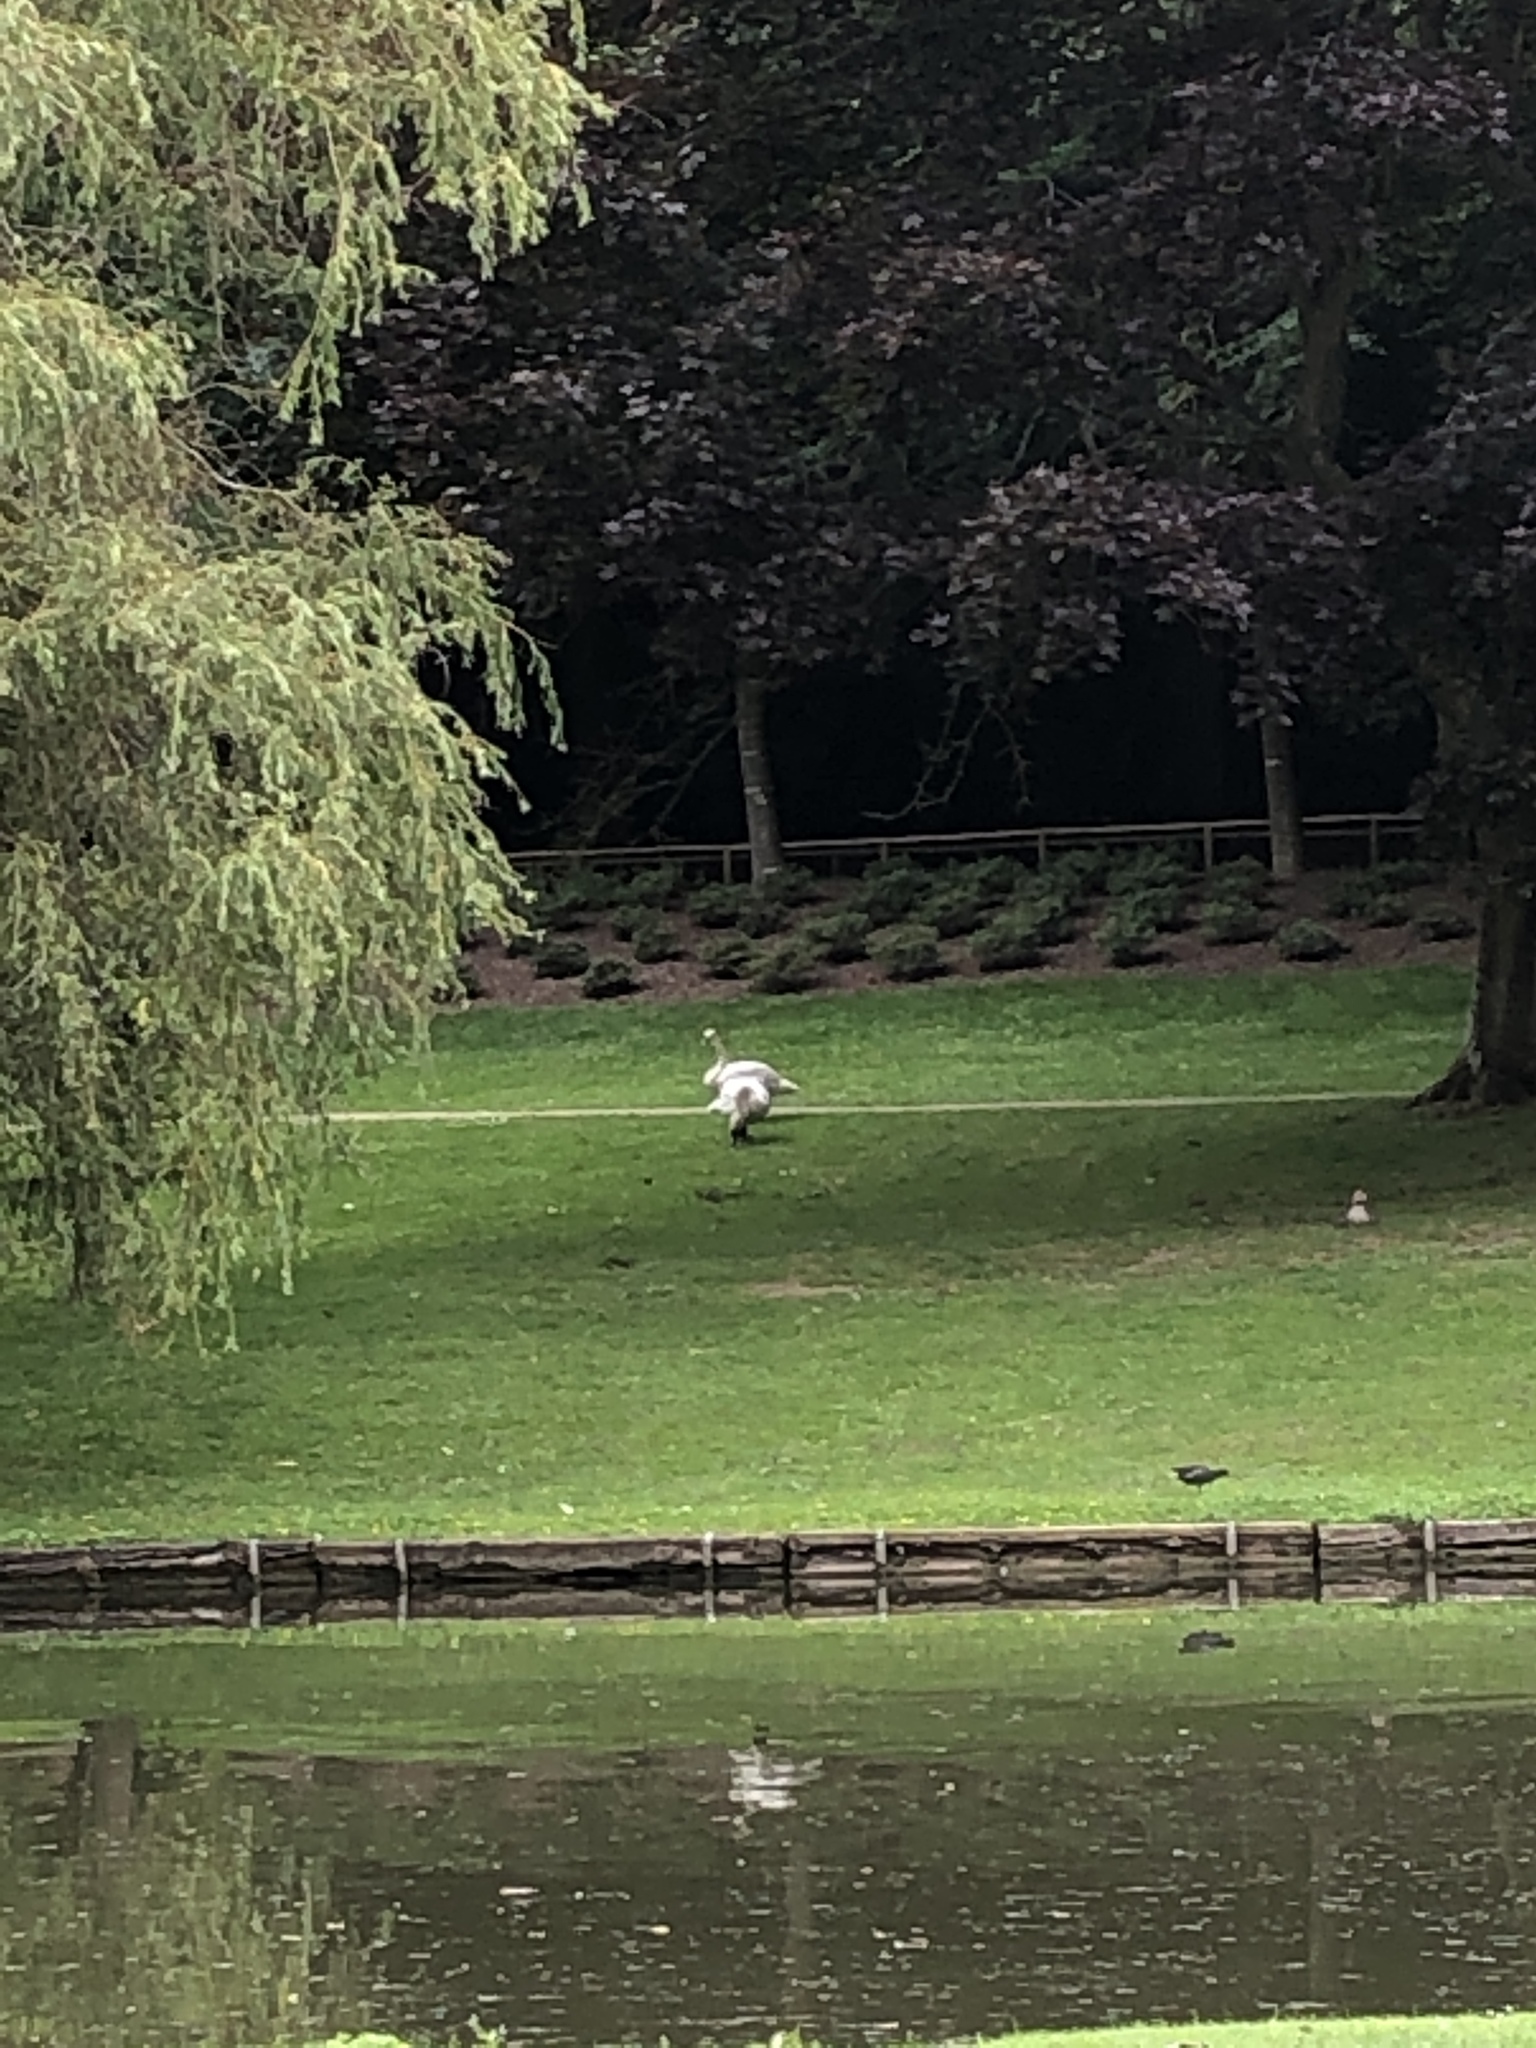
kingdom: Animalia
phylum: Chordata
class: Aves
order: Anseriformes
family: Anatidae
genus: Cygnus
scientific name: Cygnus olor
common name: Mute swan
